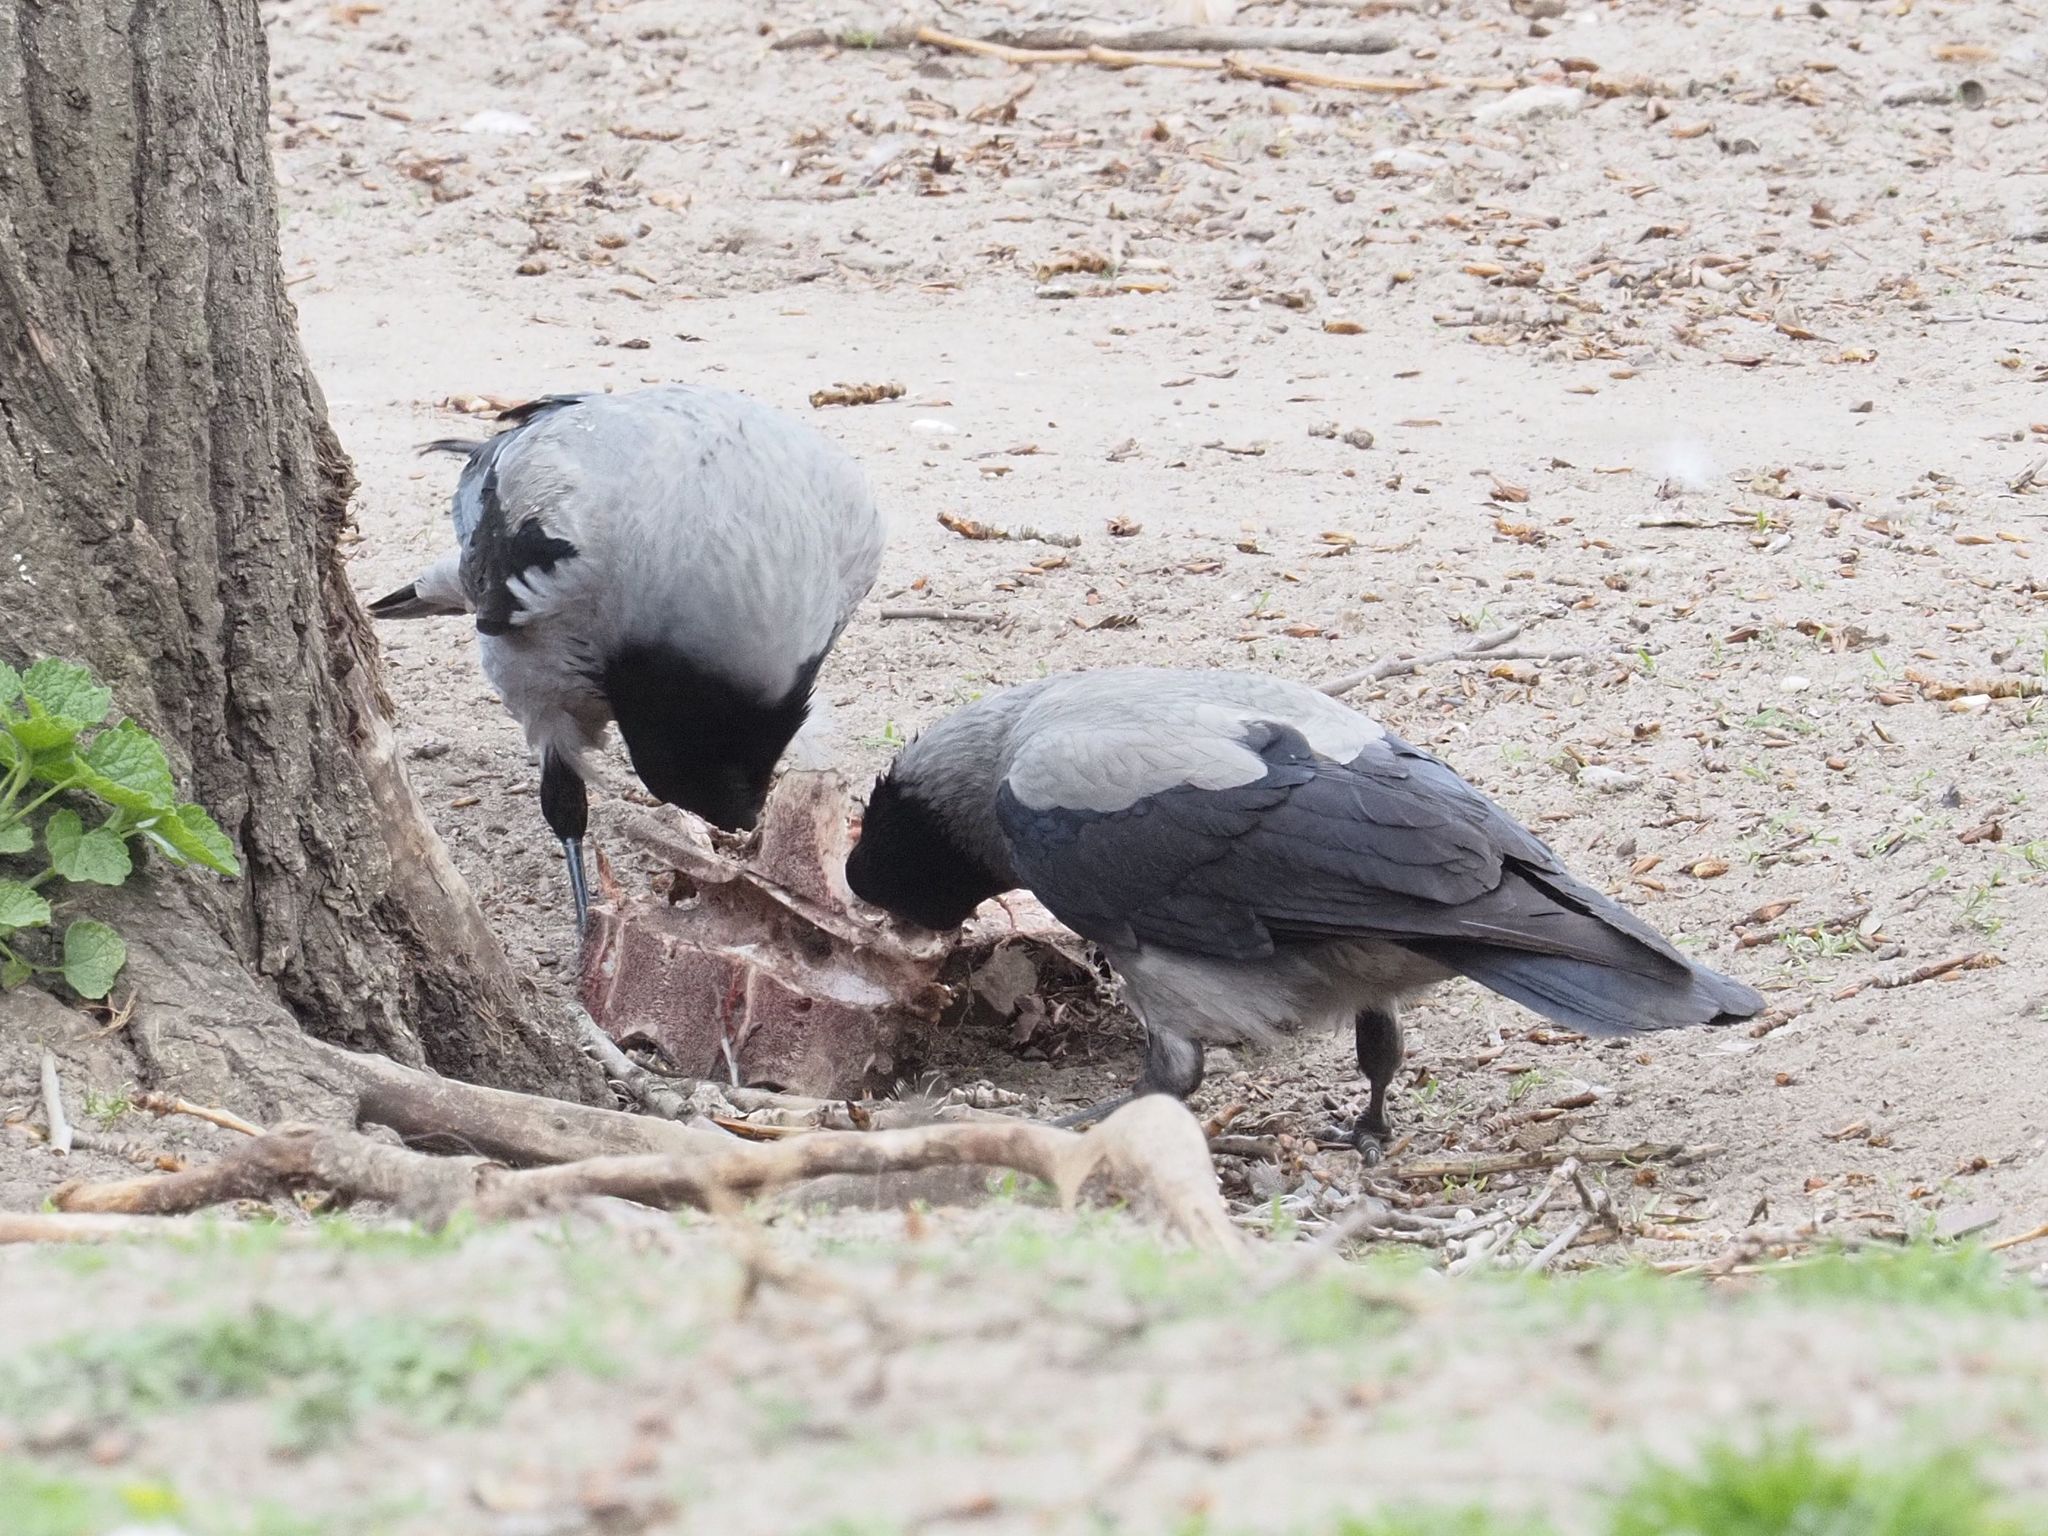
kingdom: Animalia
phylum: Chordata
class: Aves
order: Passeriformes
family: Corvidae
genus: Corvus
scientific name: Corvus cornix
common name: Hooded crow
